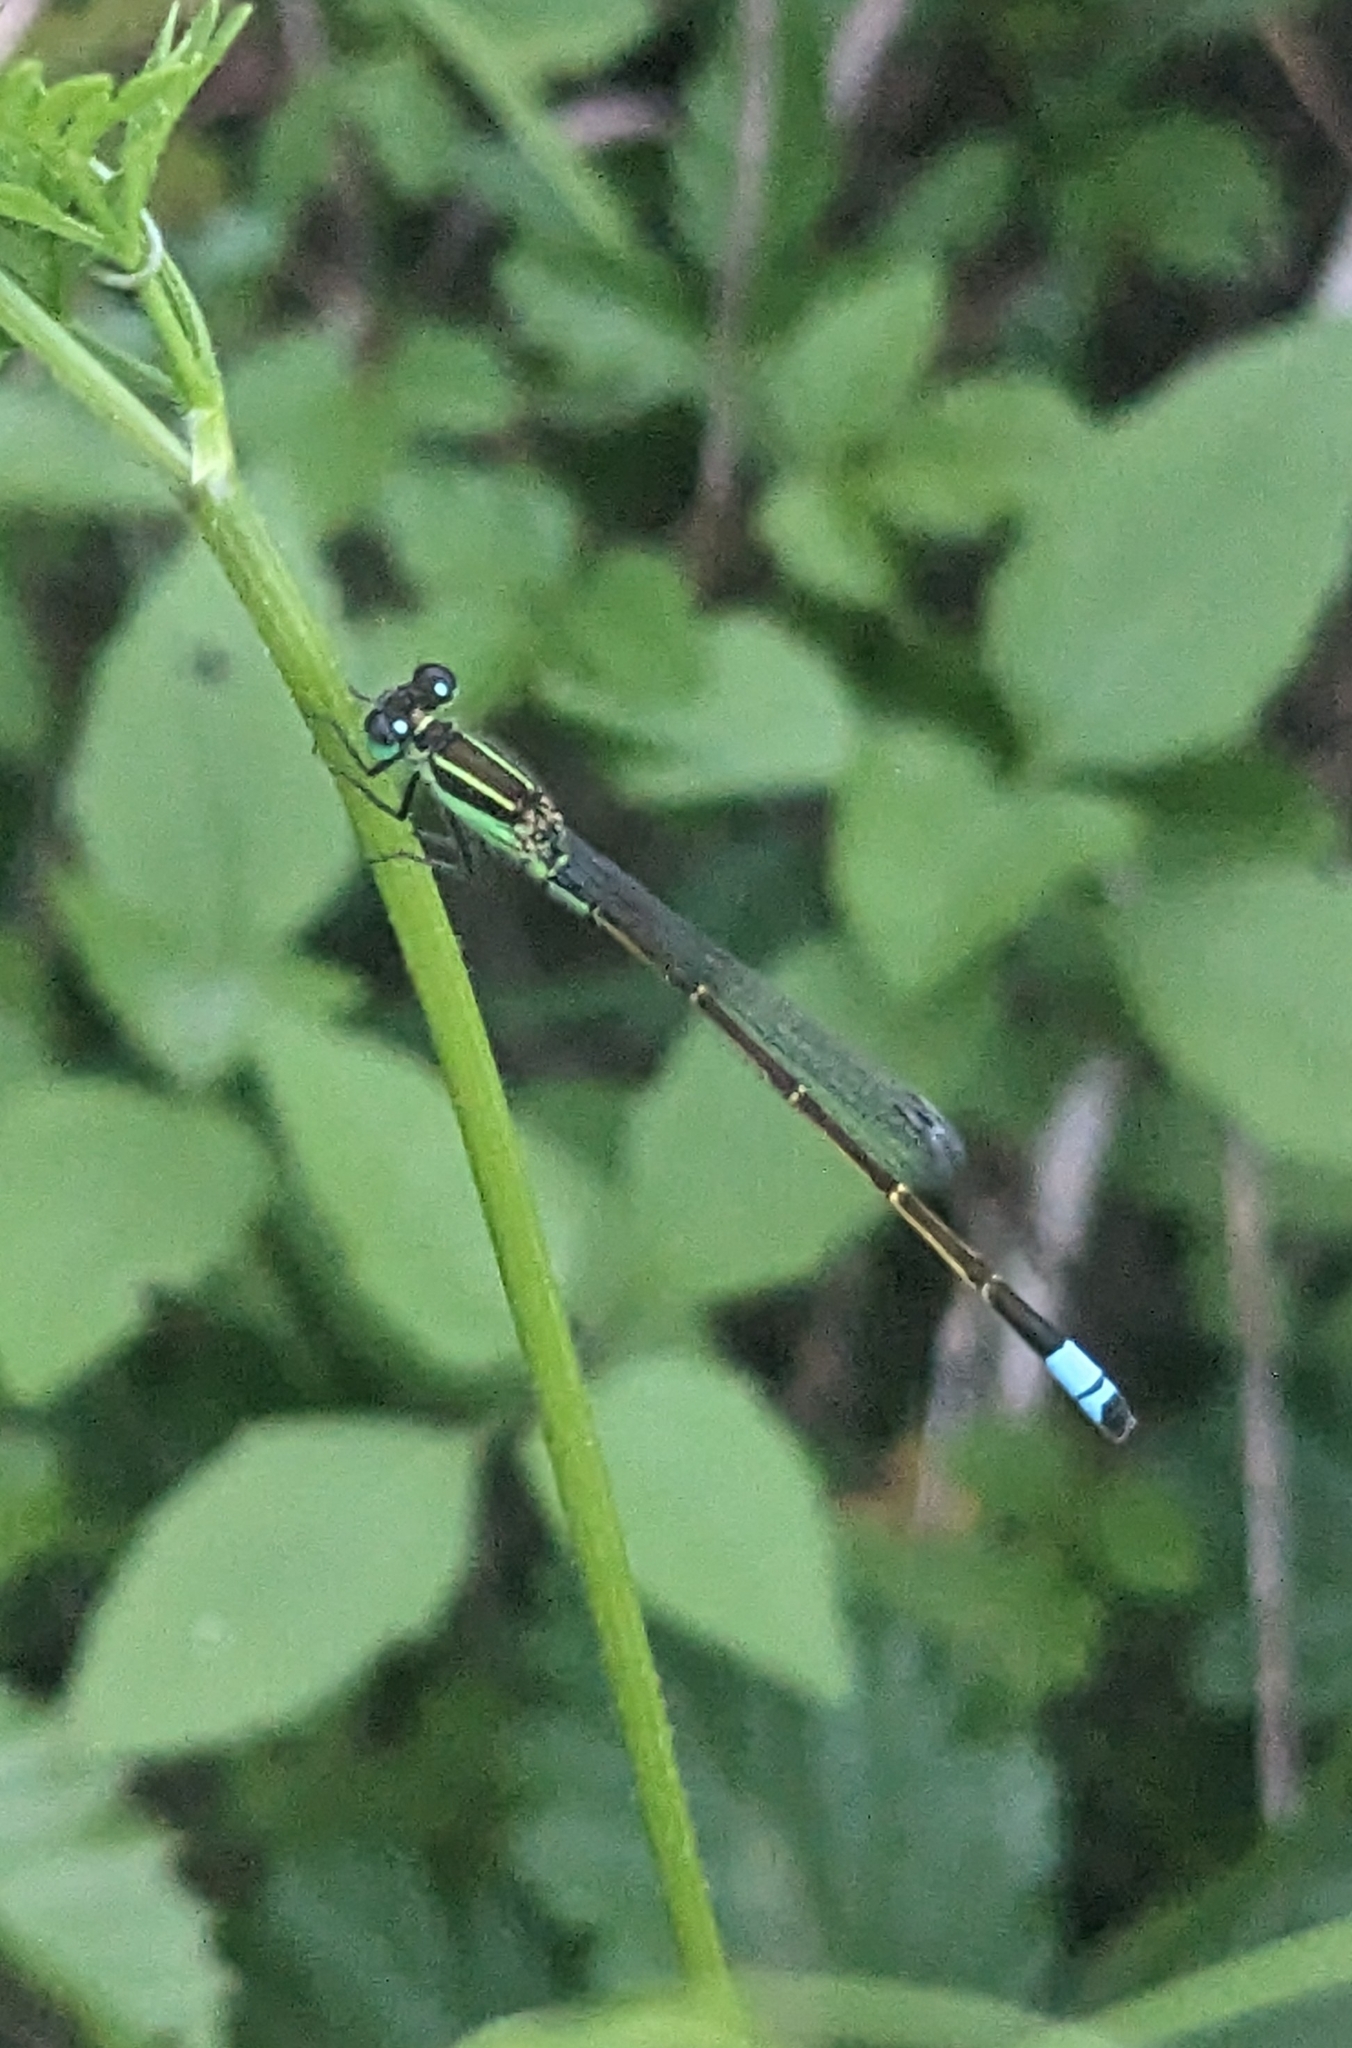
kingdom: Animalia
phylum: Arthropoda
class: Insecta
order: Odonata
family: Coenagrionidae
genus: Ischnura
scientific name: Ischnura ramburii
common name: Rambur's forktail
